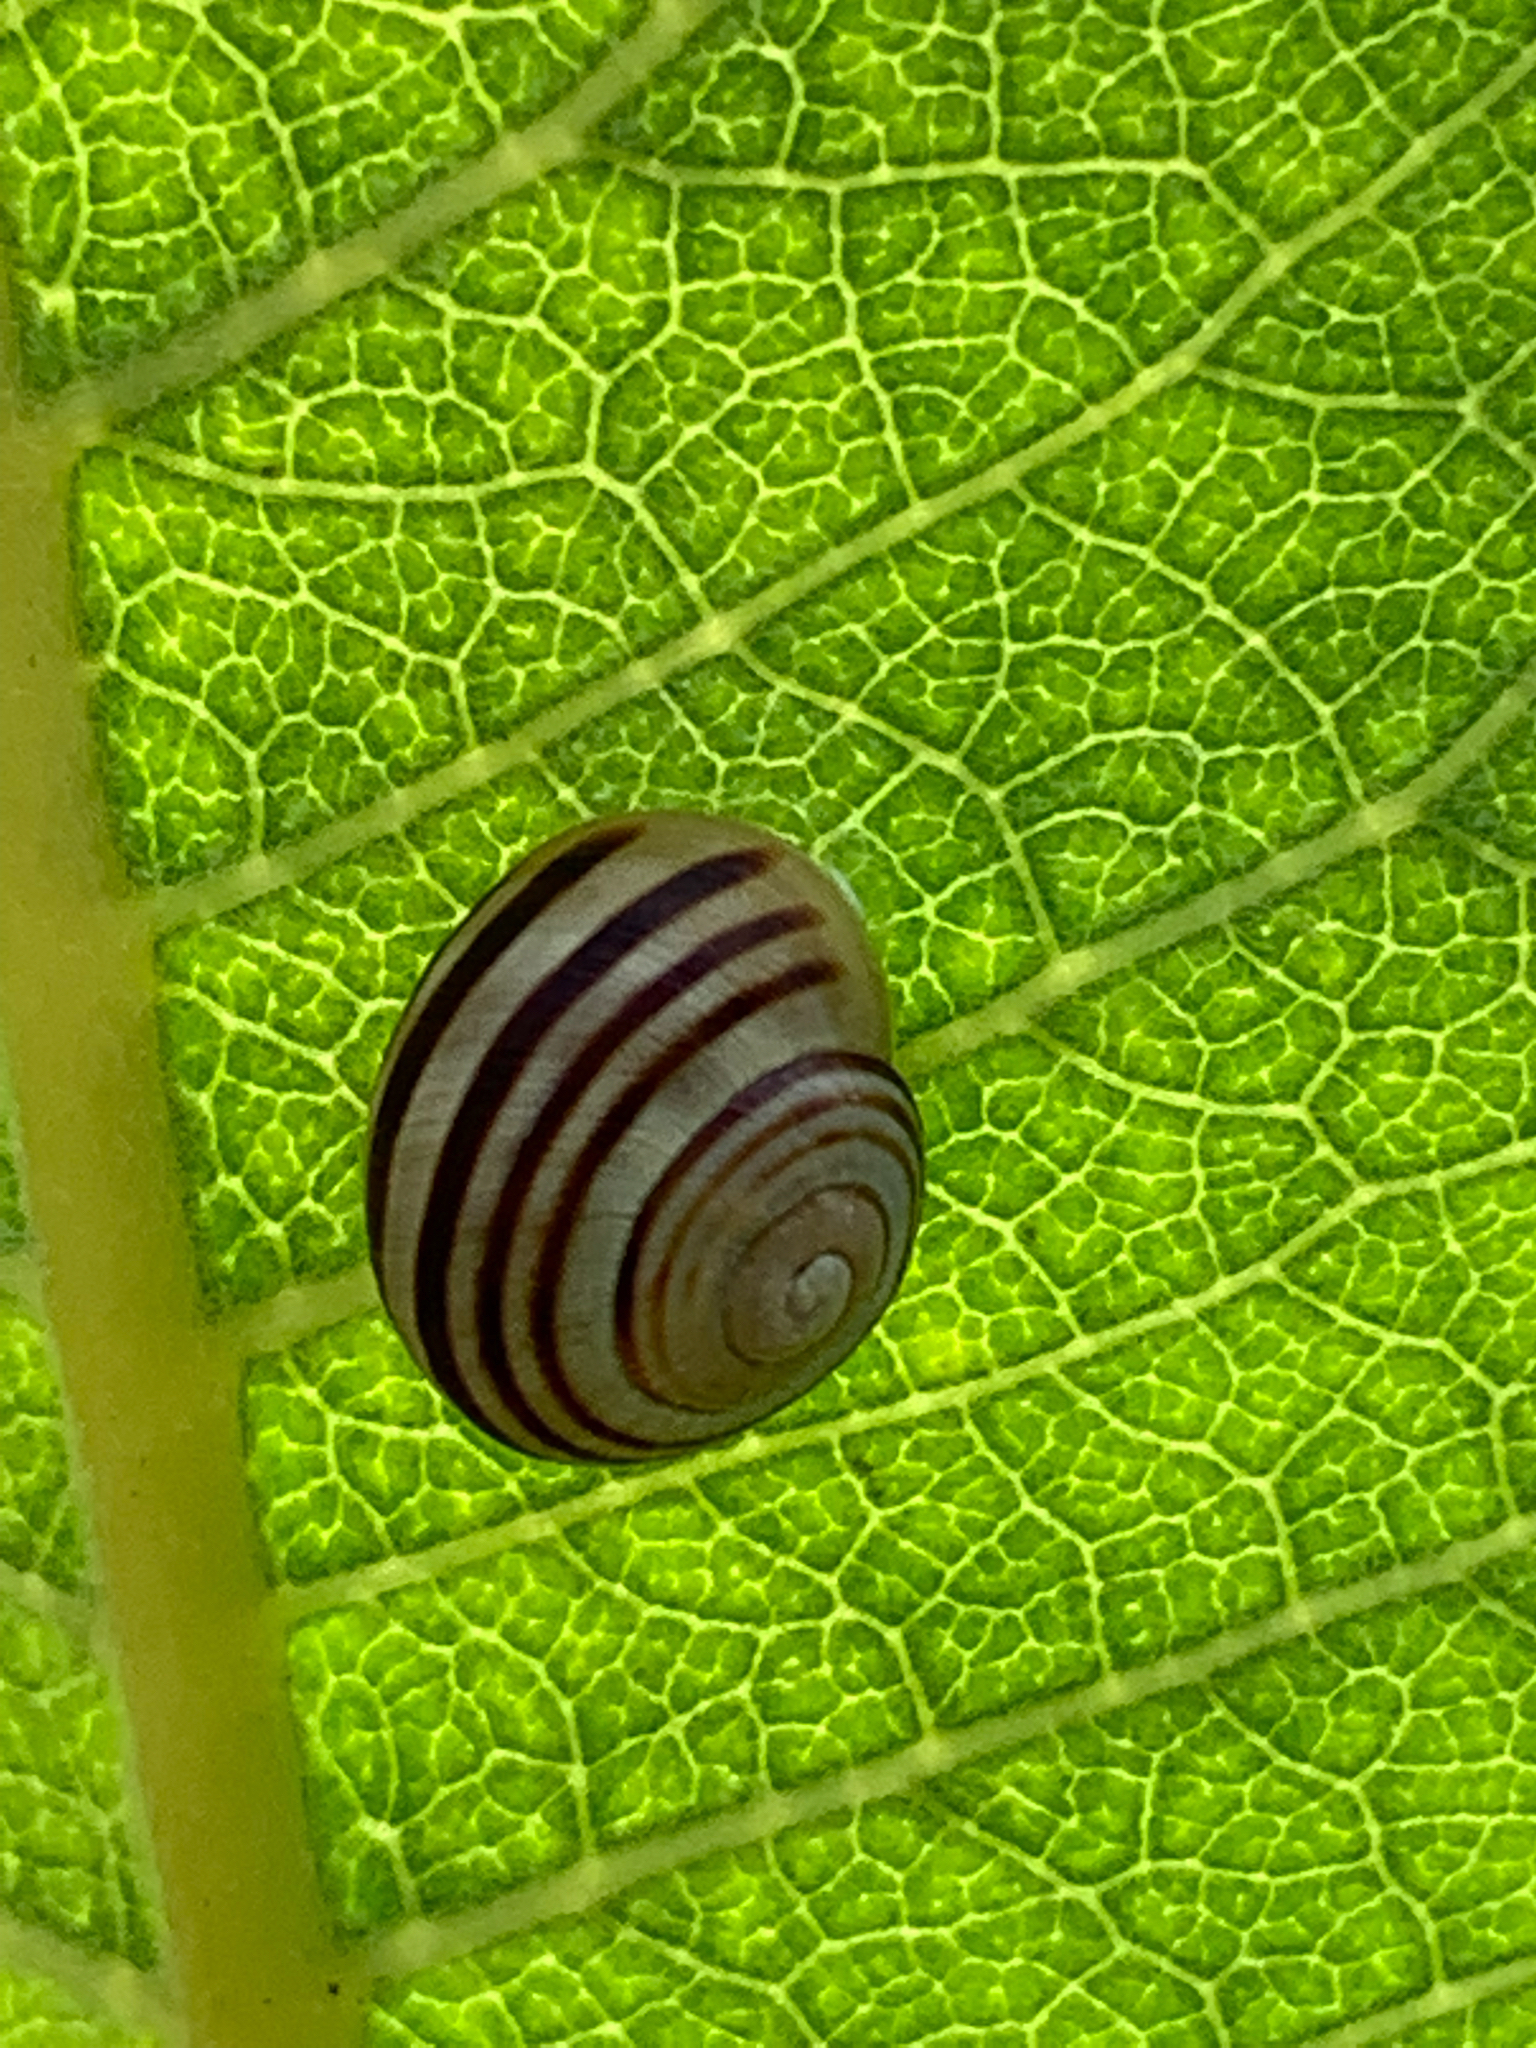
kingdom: Animalia
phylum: Mollusca
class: Gastropoda
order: Stylommatophora
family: Helicidae
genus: Cepaea
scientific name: Cepaea
